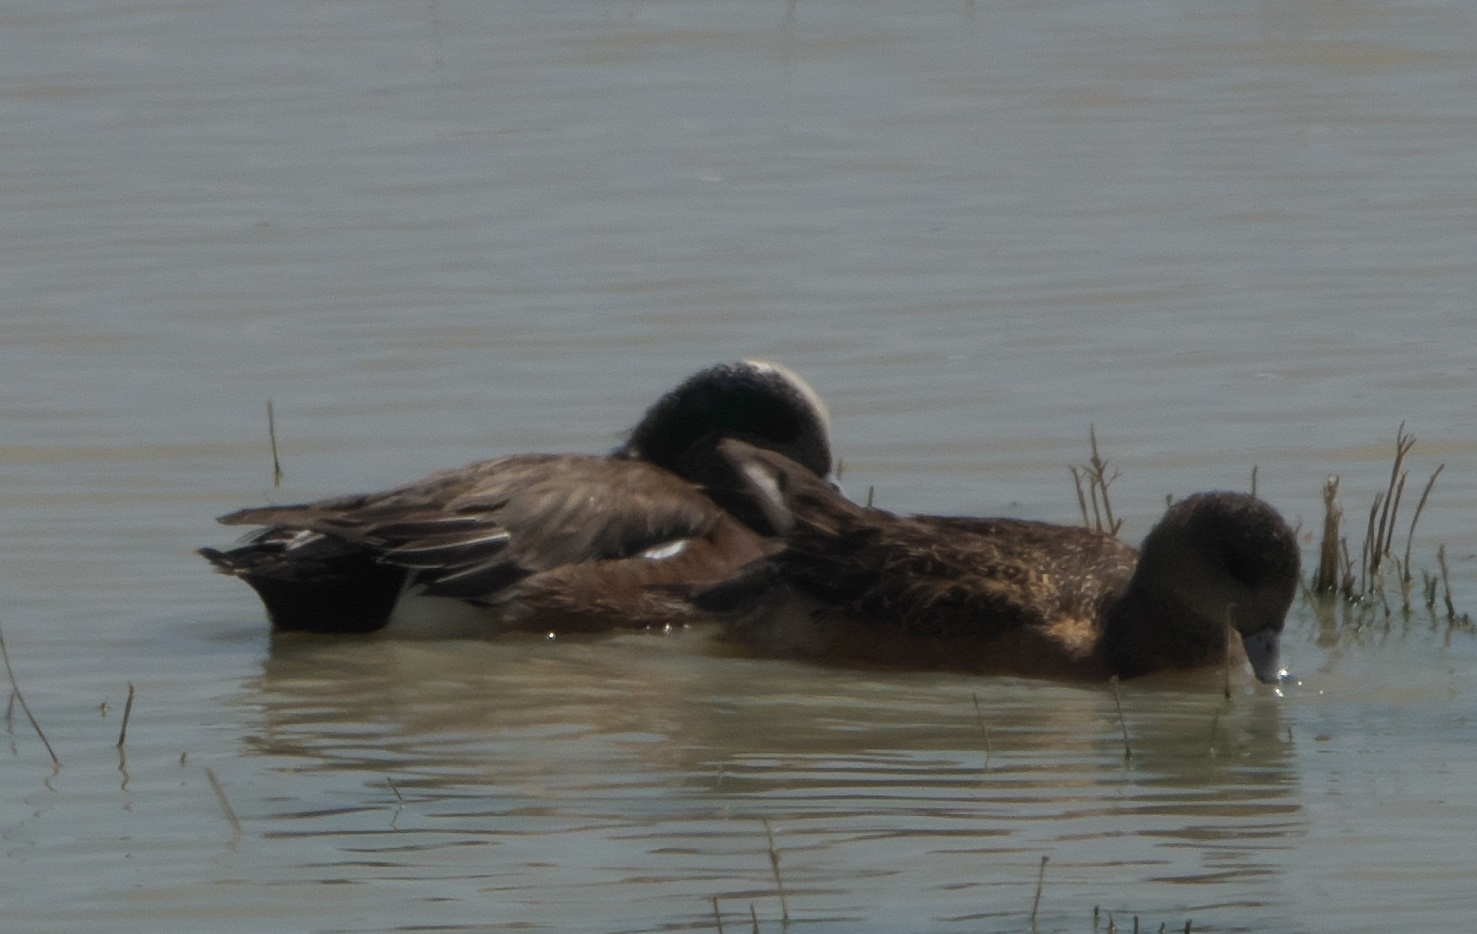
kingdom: Animalia
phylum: Chordata
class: Aves
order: Anseriformes
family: Anatidae
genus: Mareca
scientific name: Mareca americana
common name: American wigeon
